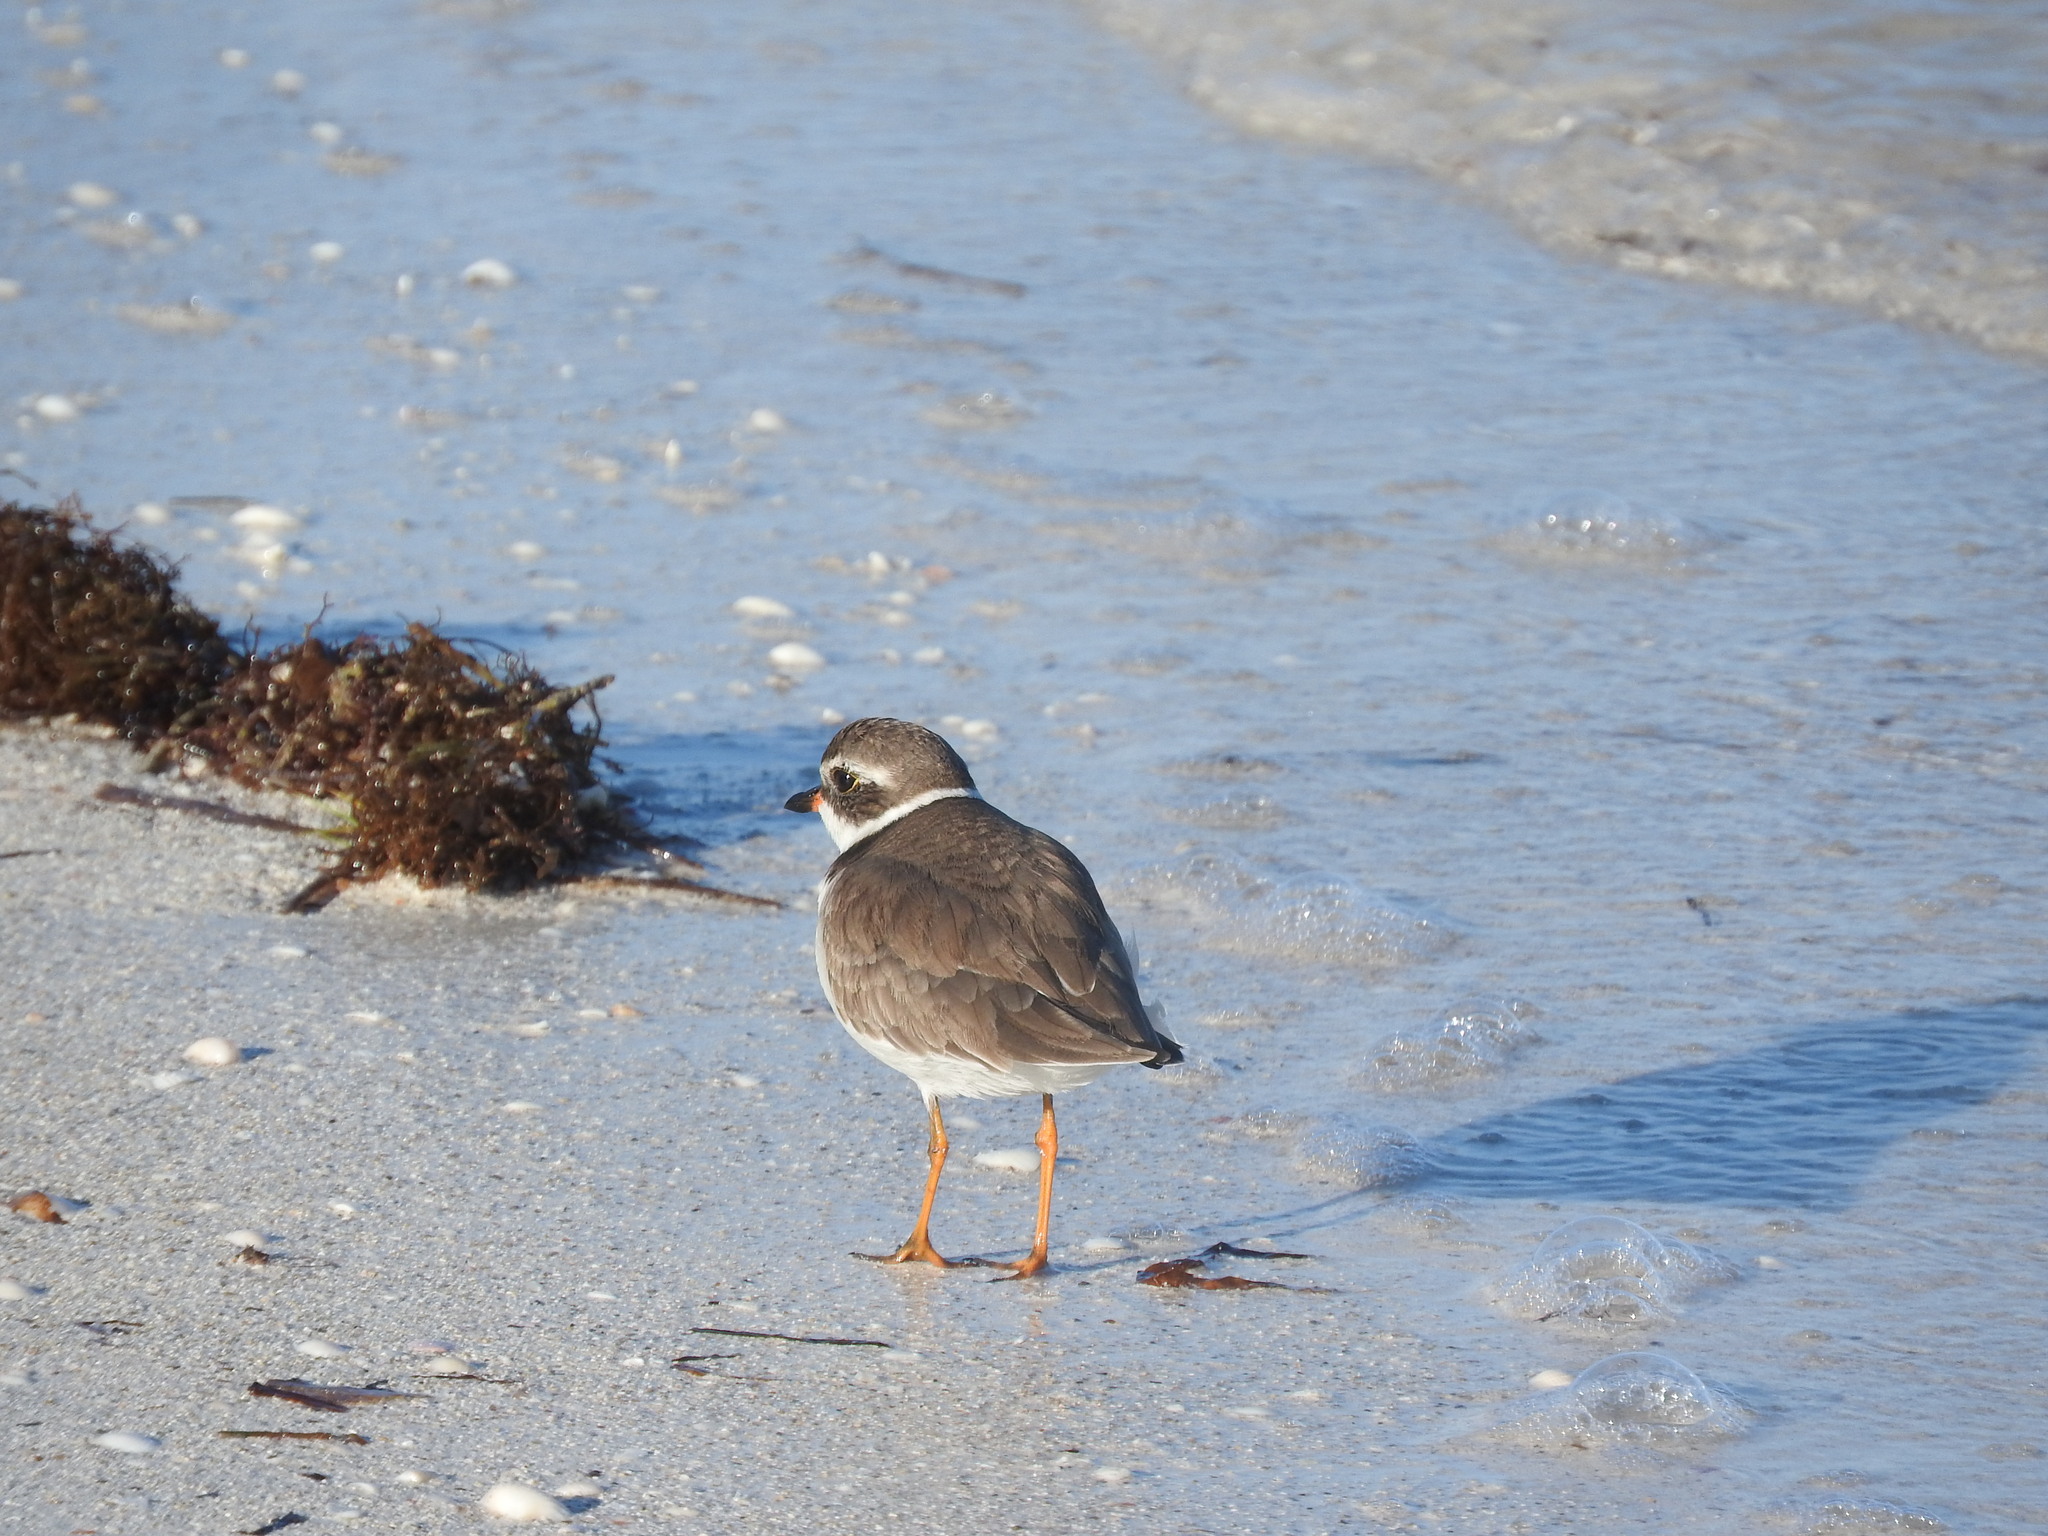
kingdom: Animalia
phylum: Chordata
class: Aves
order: Charadriiformes
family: Charadriidae
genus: Charadrius
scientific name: Charadrius semipalmatus
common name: Semipalmated plover
